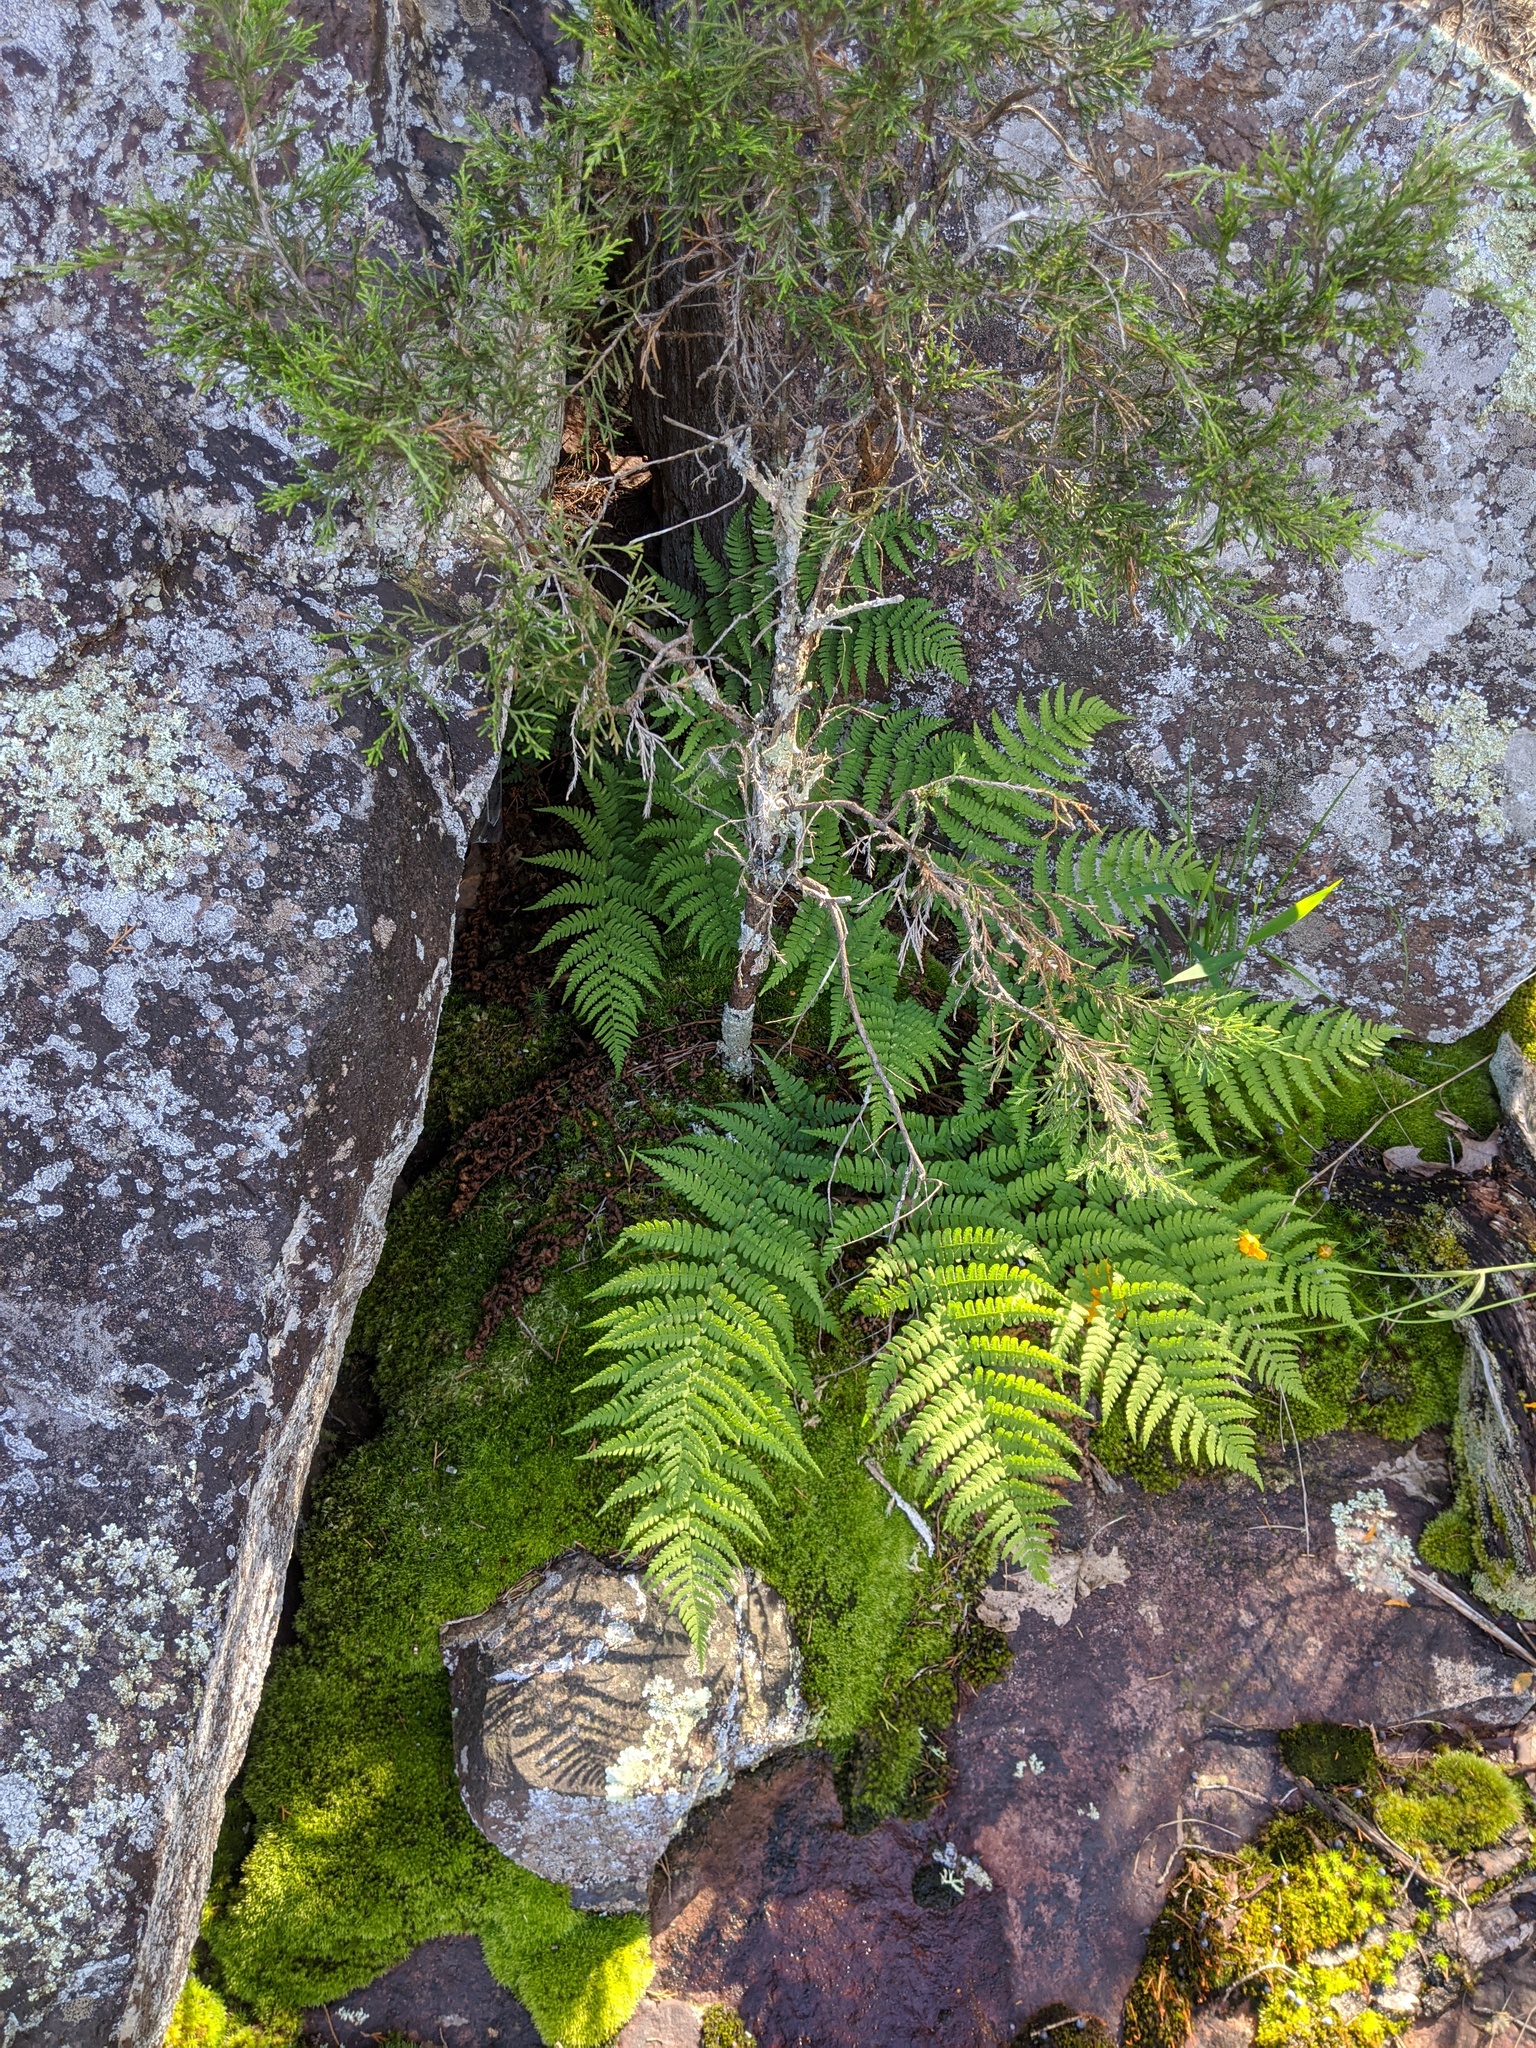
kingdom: Plantae
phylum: Tracheophyta
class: Polypodiopsida
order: Polypodiales
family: Dryopteridaceae
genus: Dryopteris
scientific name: Dryopteris marginalis
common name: Marginal wood fern
